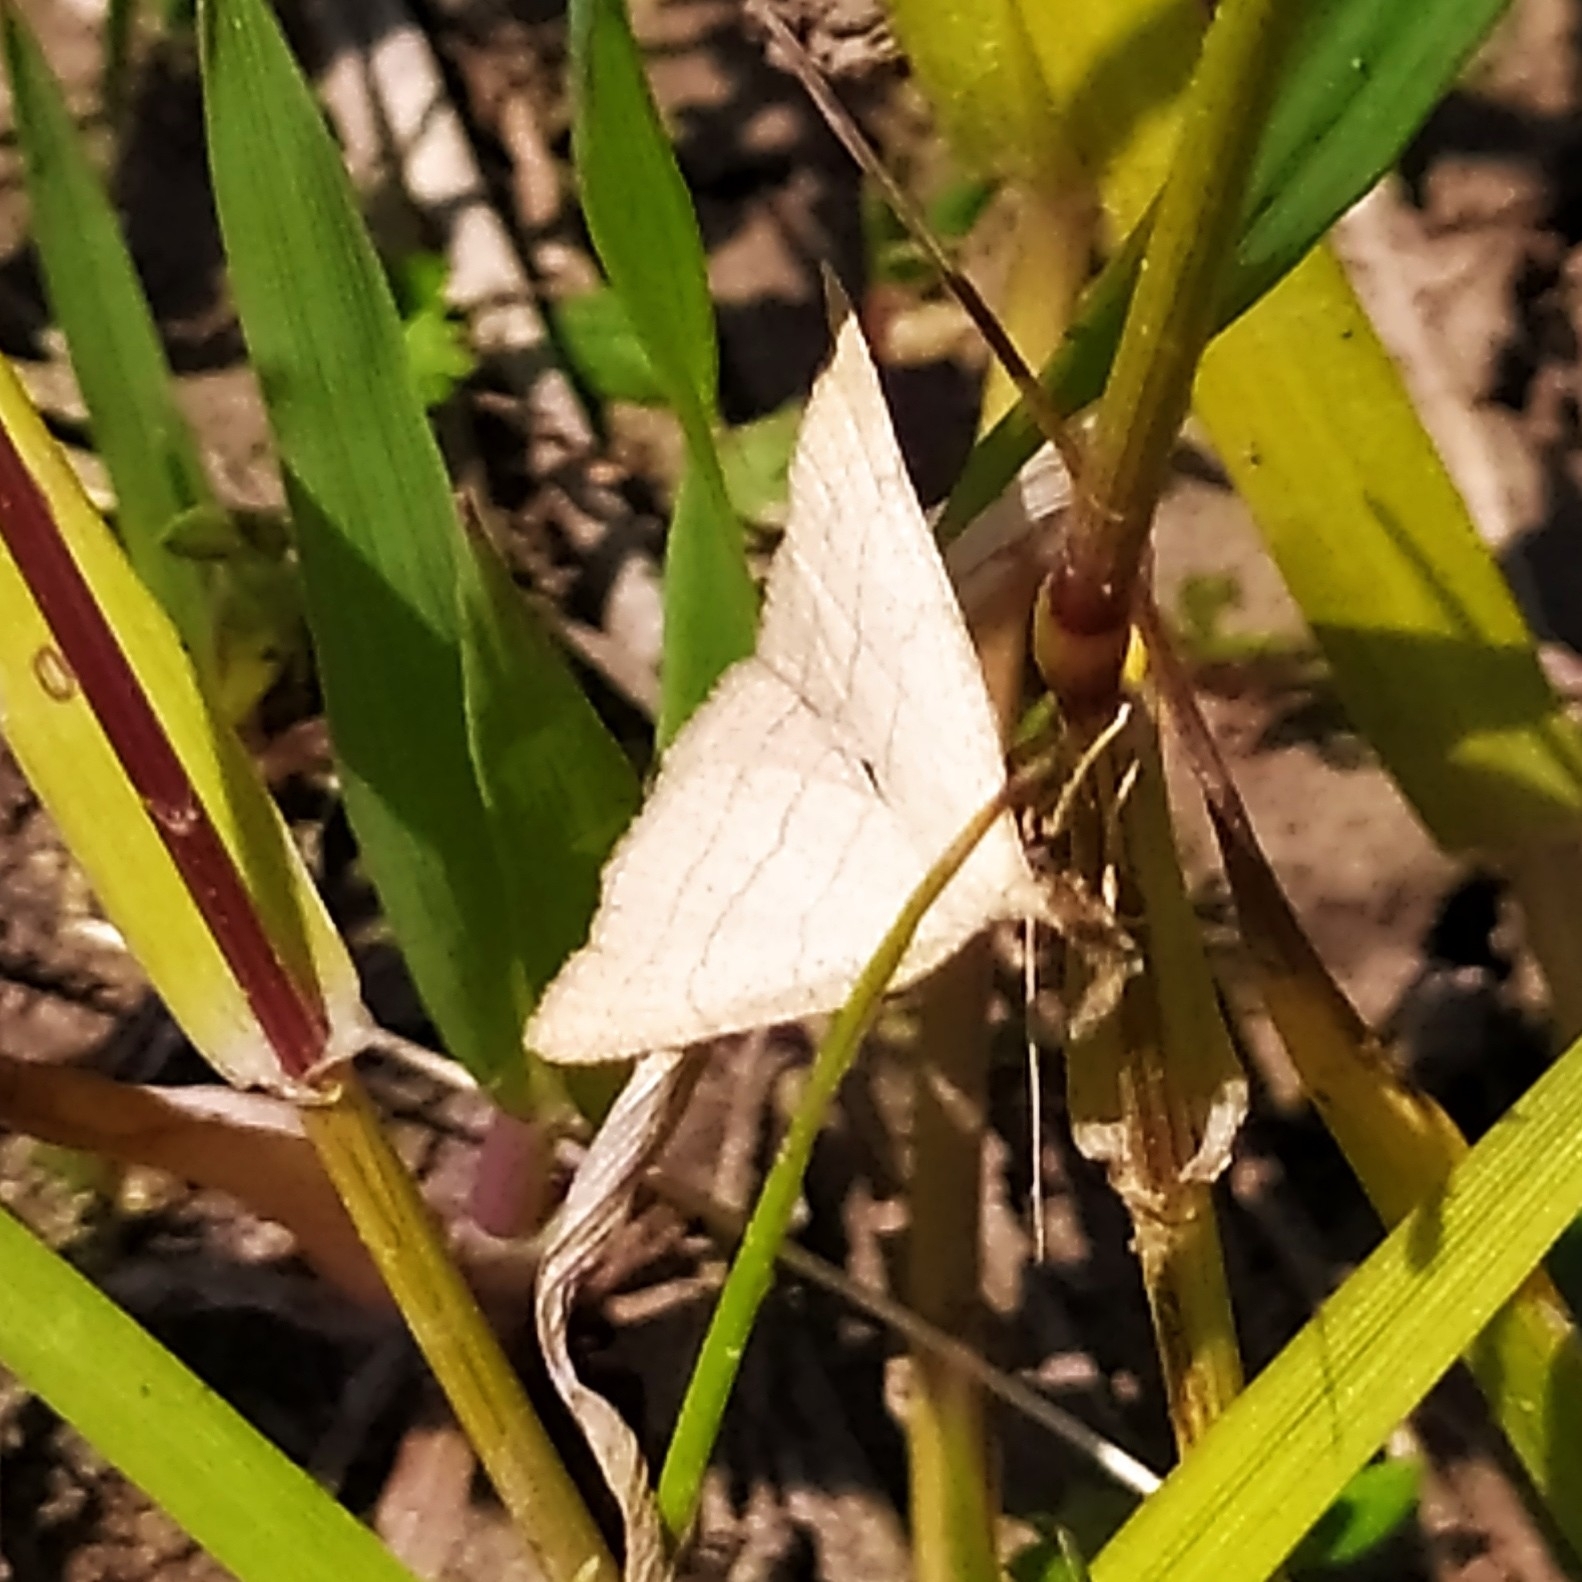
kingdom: Animalia
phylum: Arthropoda
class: Insecta
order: Lepidoptera
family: Erebidae
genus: Polypogon
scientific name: Polypogon tentacularia
